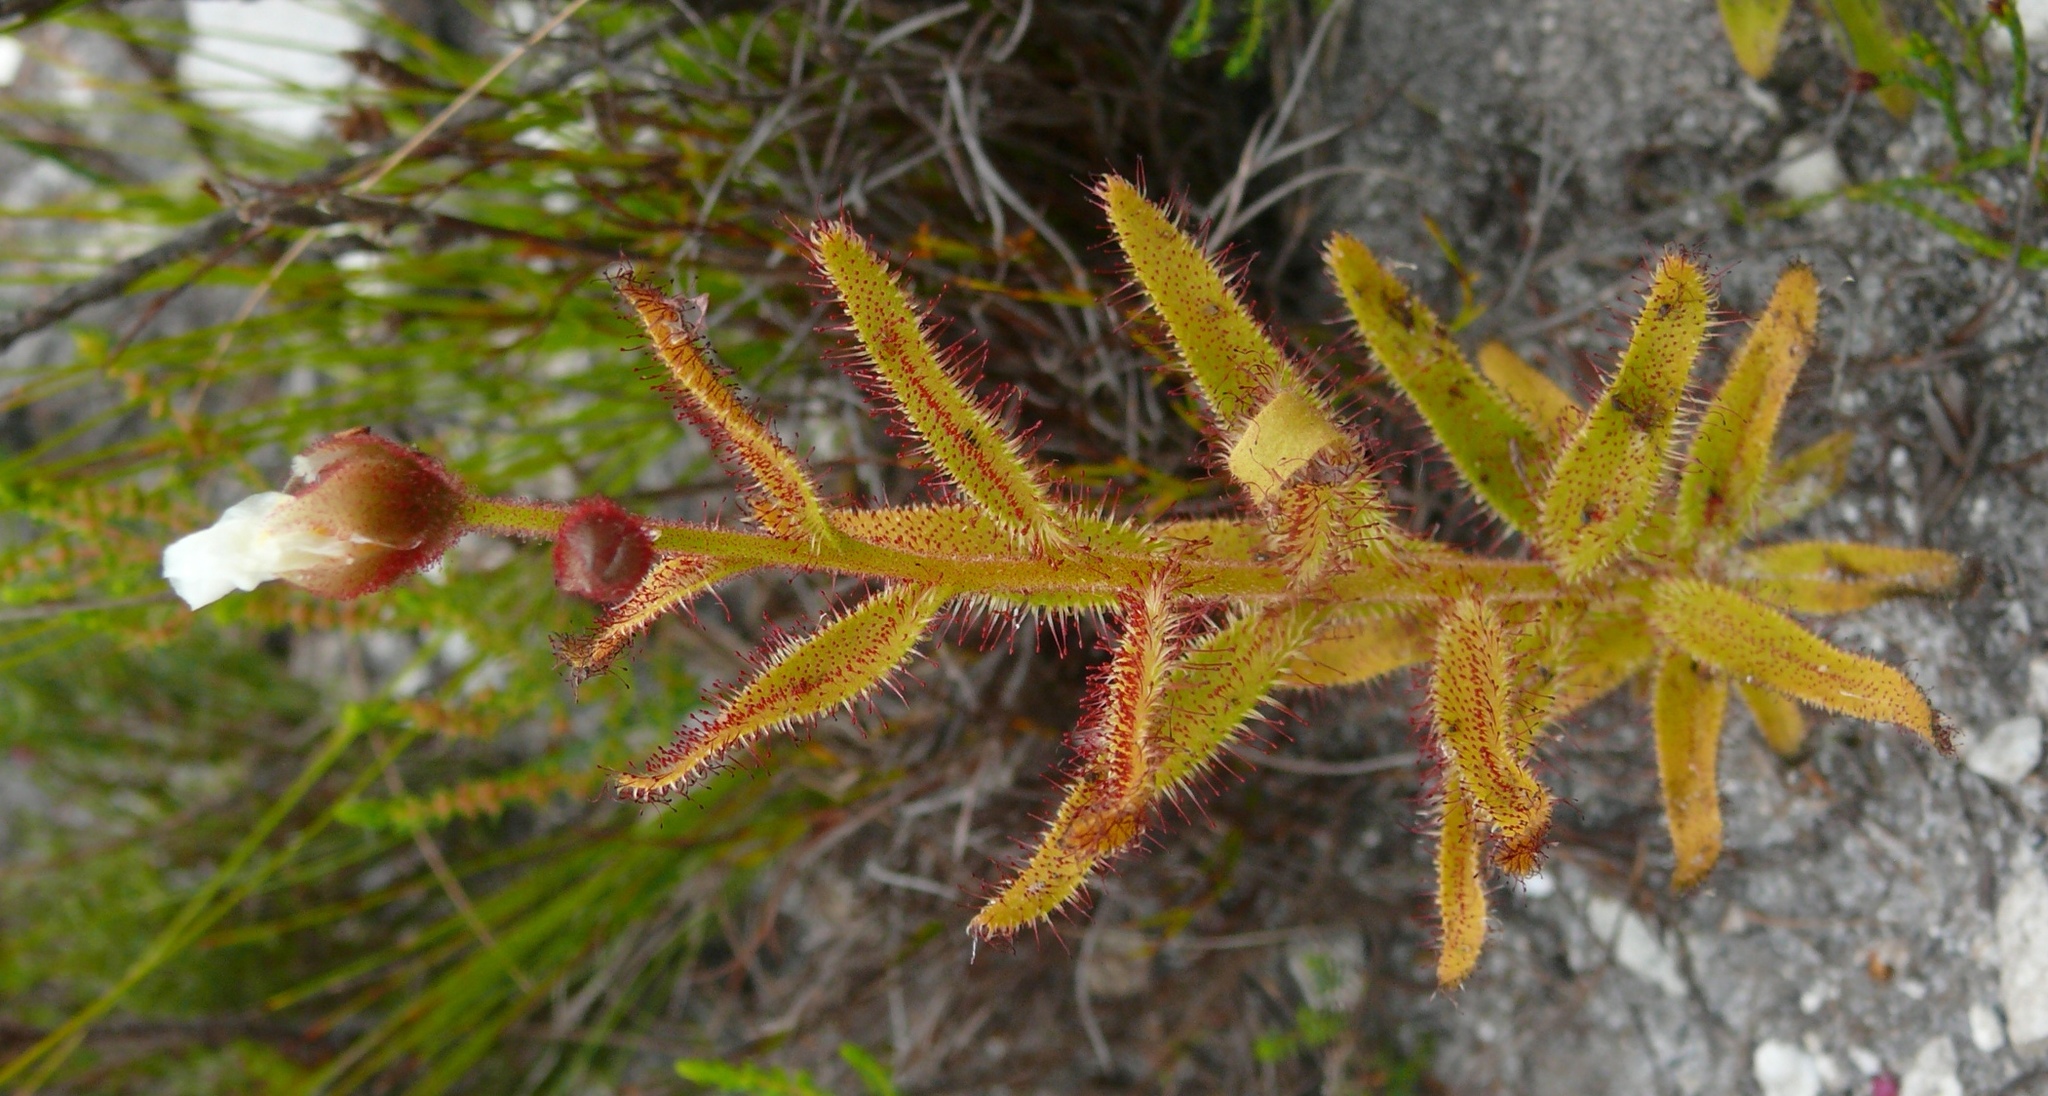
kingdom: Plantae
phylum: Tracheophyta
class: Magnoliopsida
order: Caryophyllales
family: Droseraceae
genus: Drosera
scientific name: Drosera cistiflora
